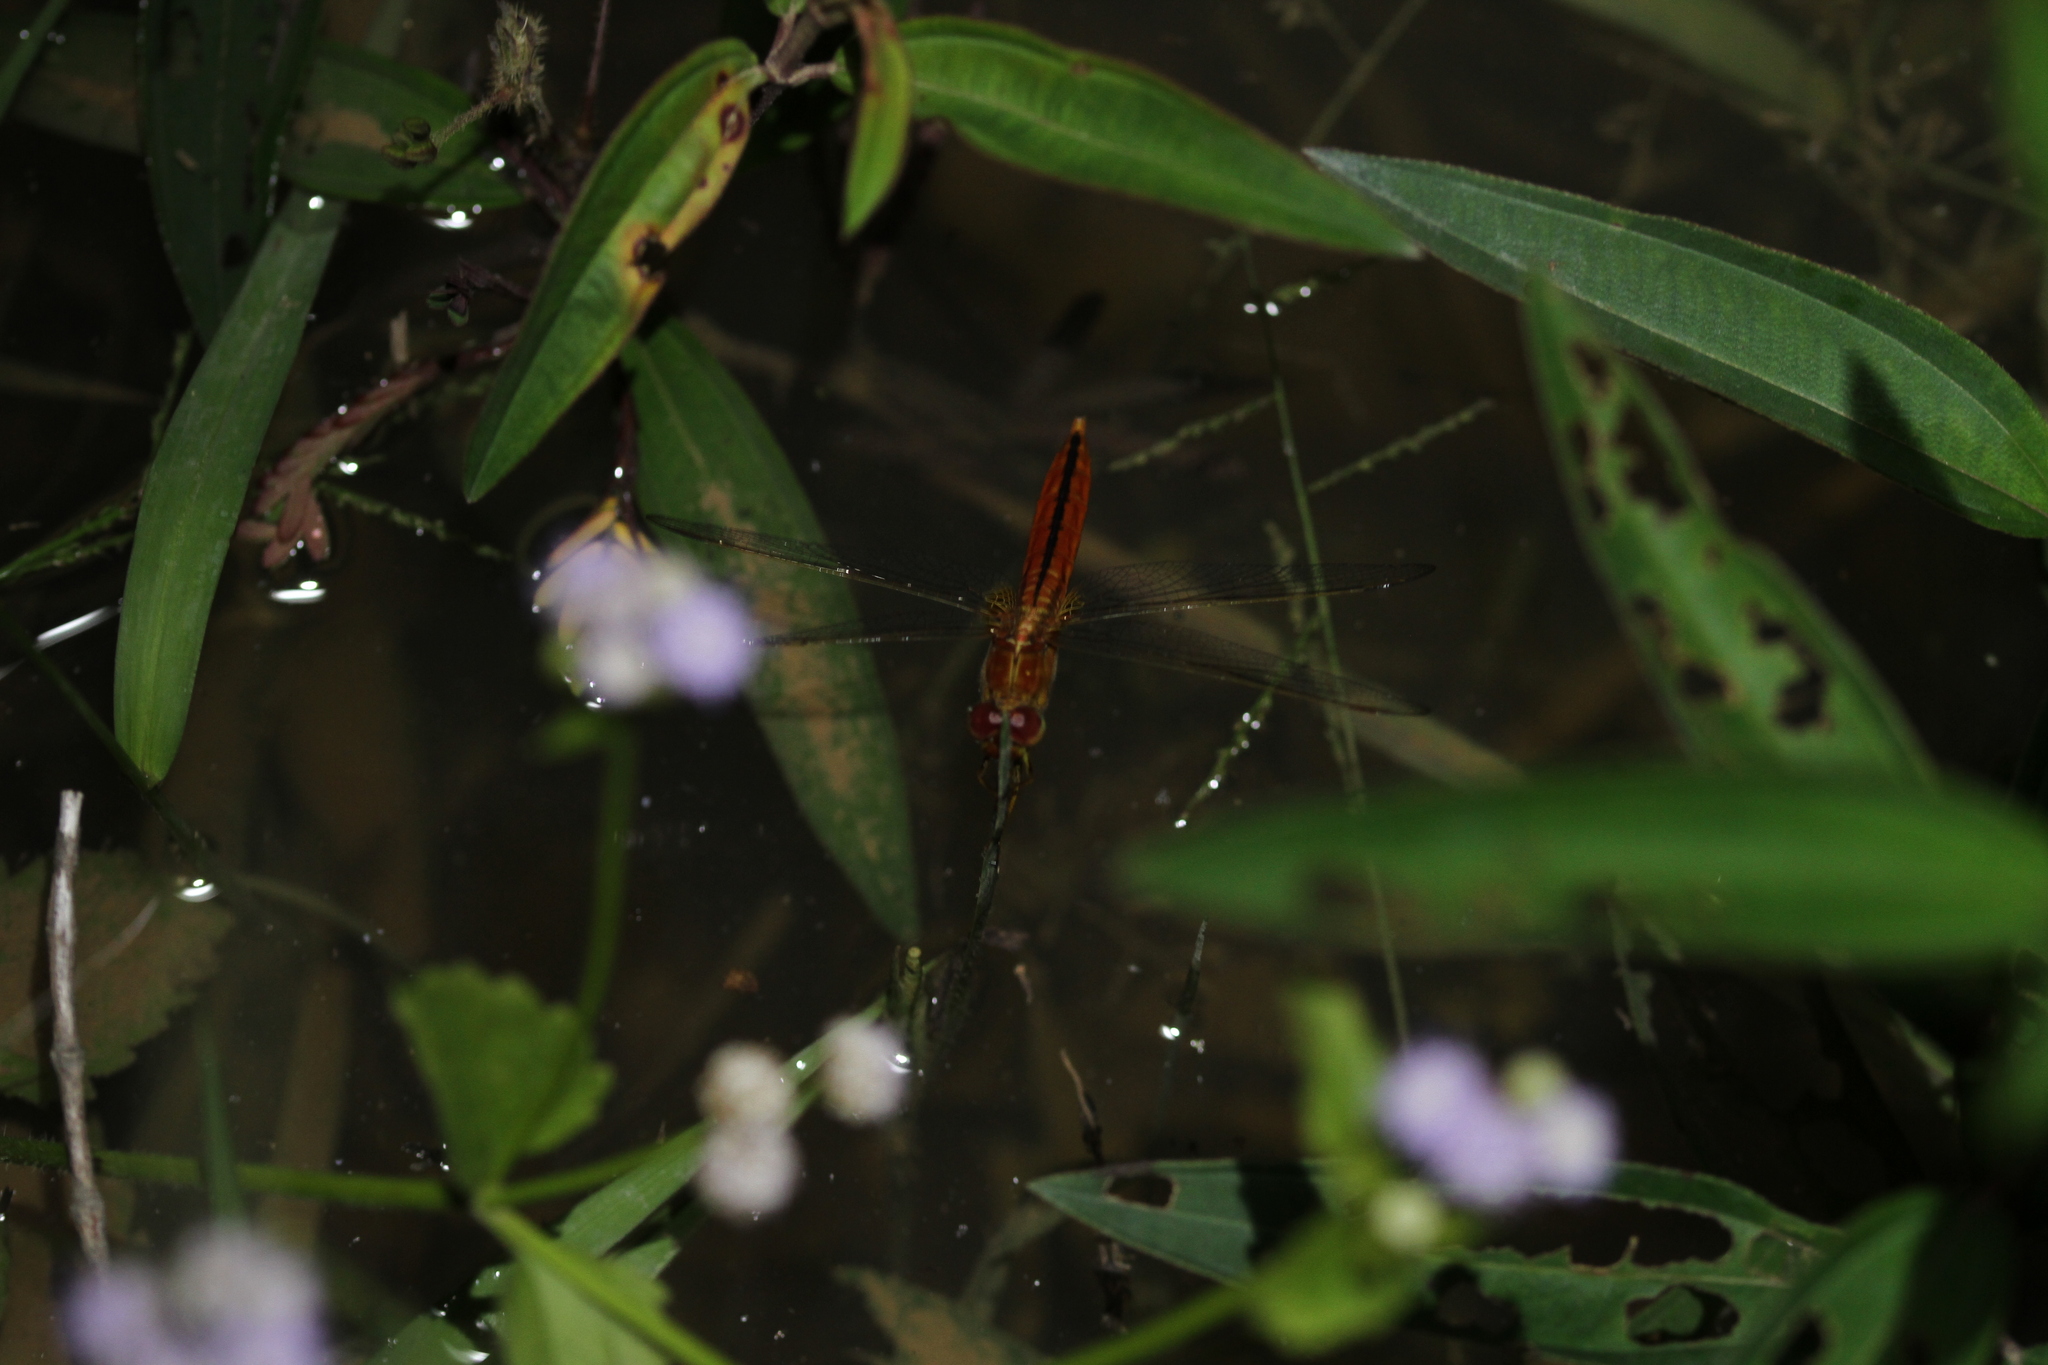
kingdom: Animalia
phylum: Arthropoda
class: Insecta
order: Odonata
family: Libellulidae
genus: Crocothemis
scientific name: Crocothemis servilia
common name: Scarlet skimmer
